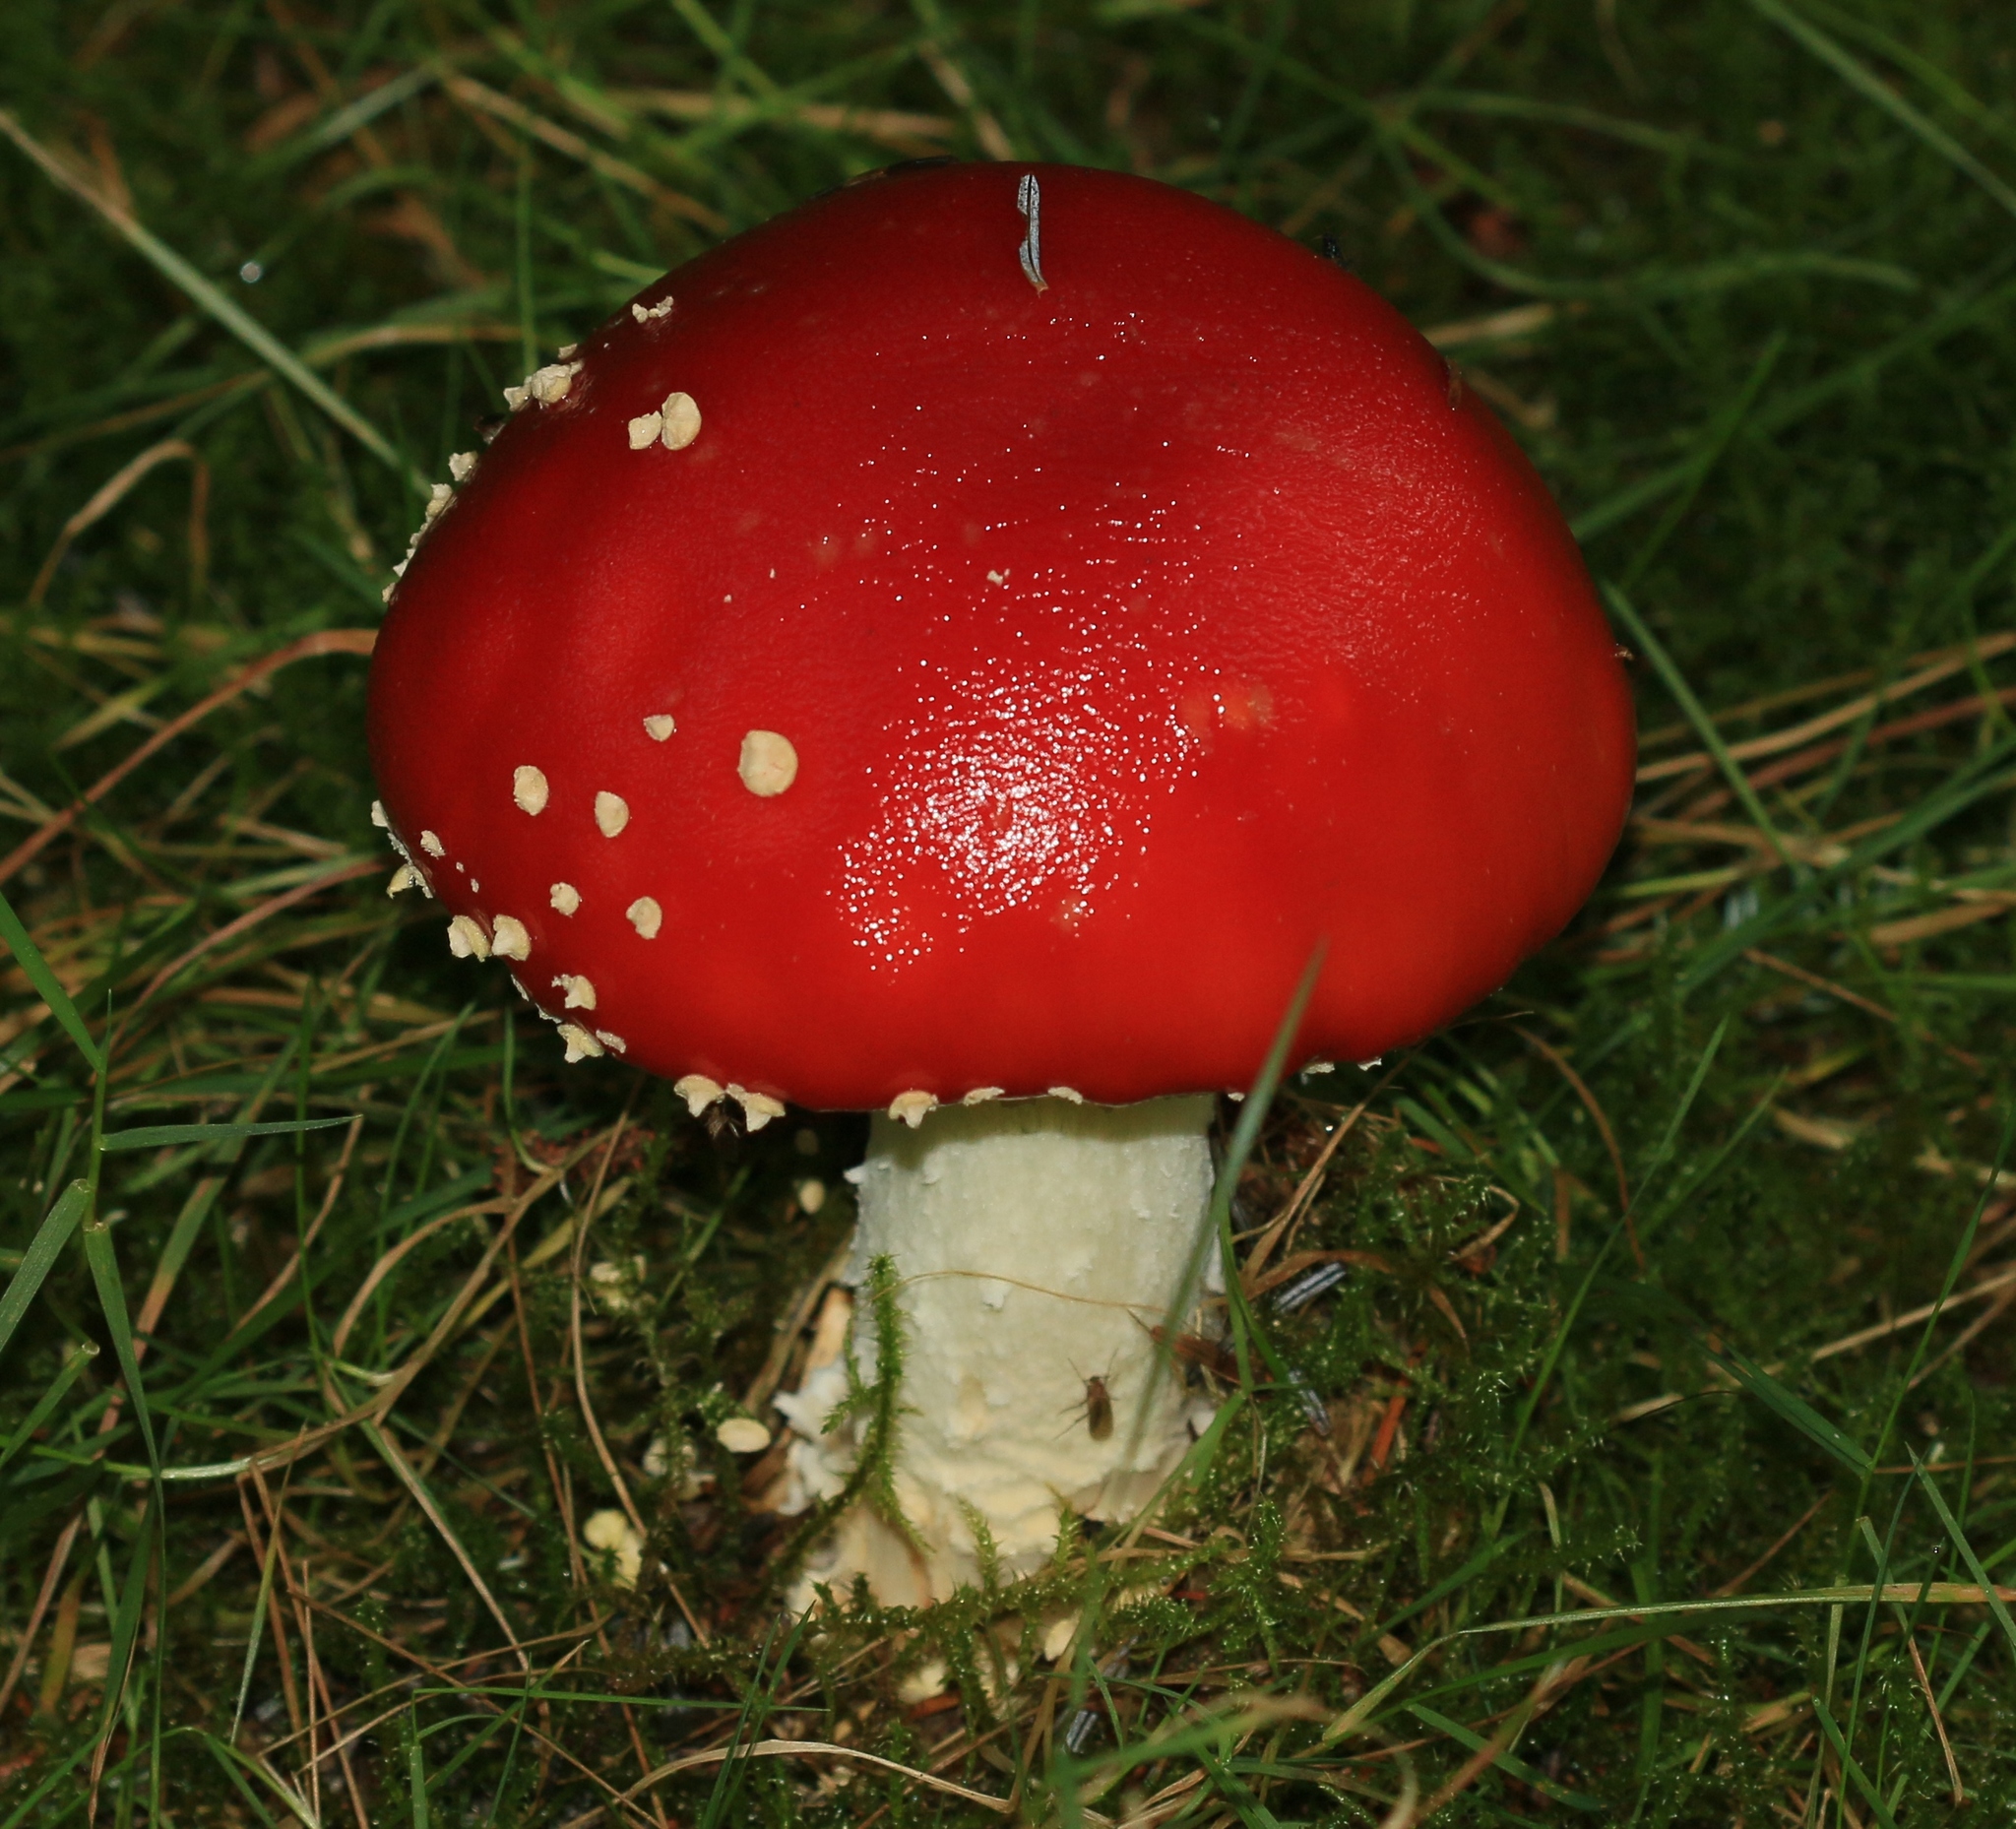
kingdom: Fungi
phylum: Basidiomycota
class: Agaricomycetes
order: Agaricales
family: Amanitaceae
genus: Amanita
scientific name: Amanita muscaria
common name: Fly agaric
